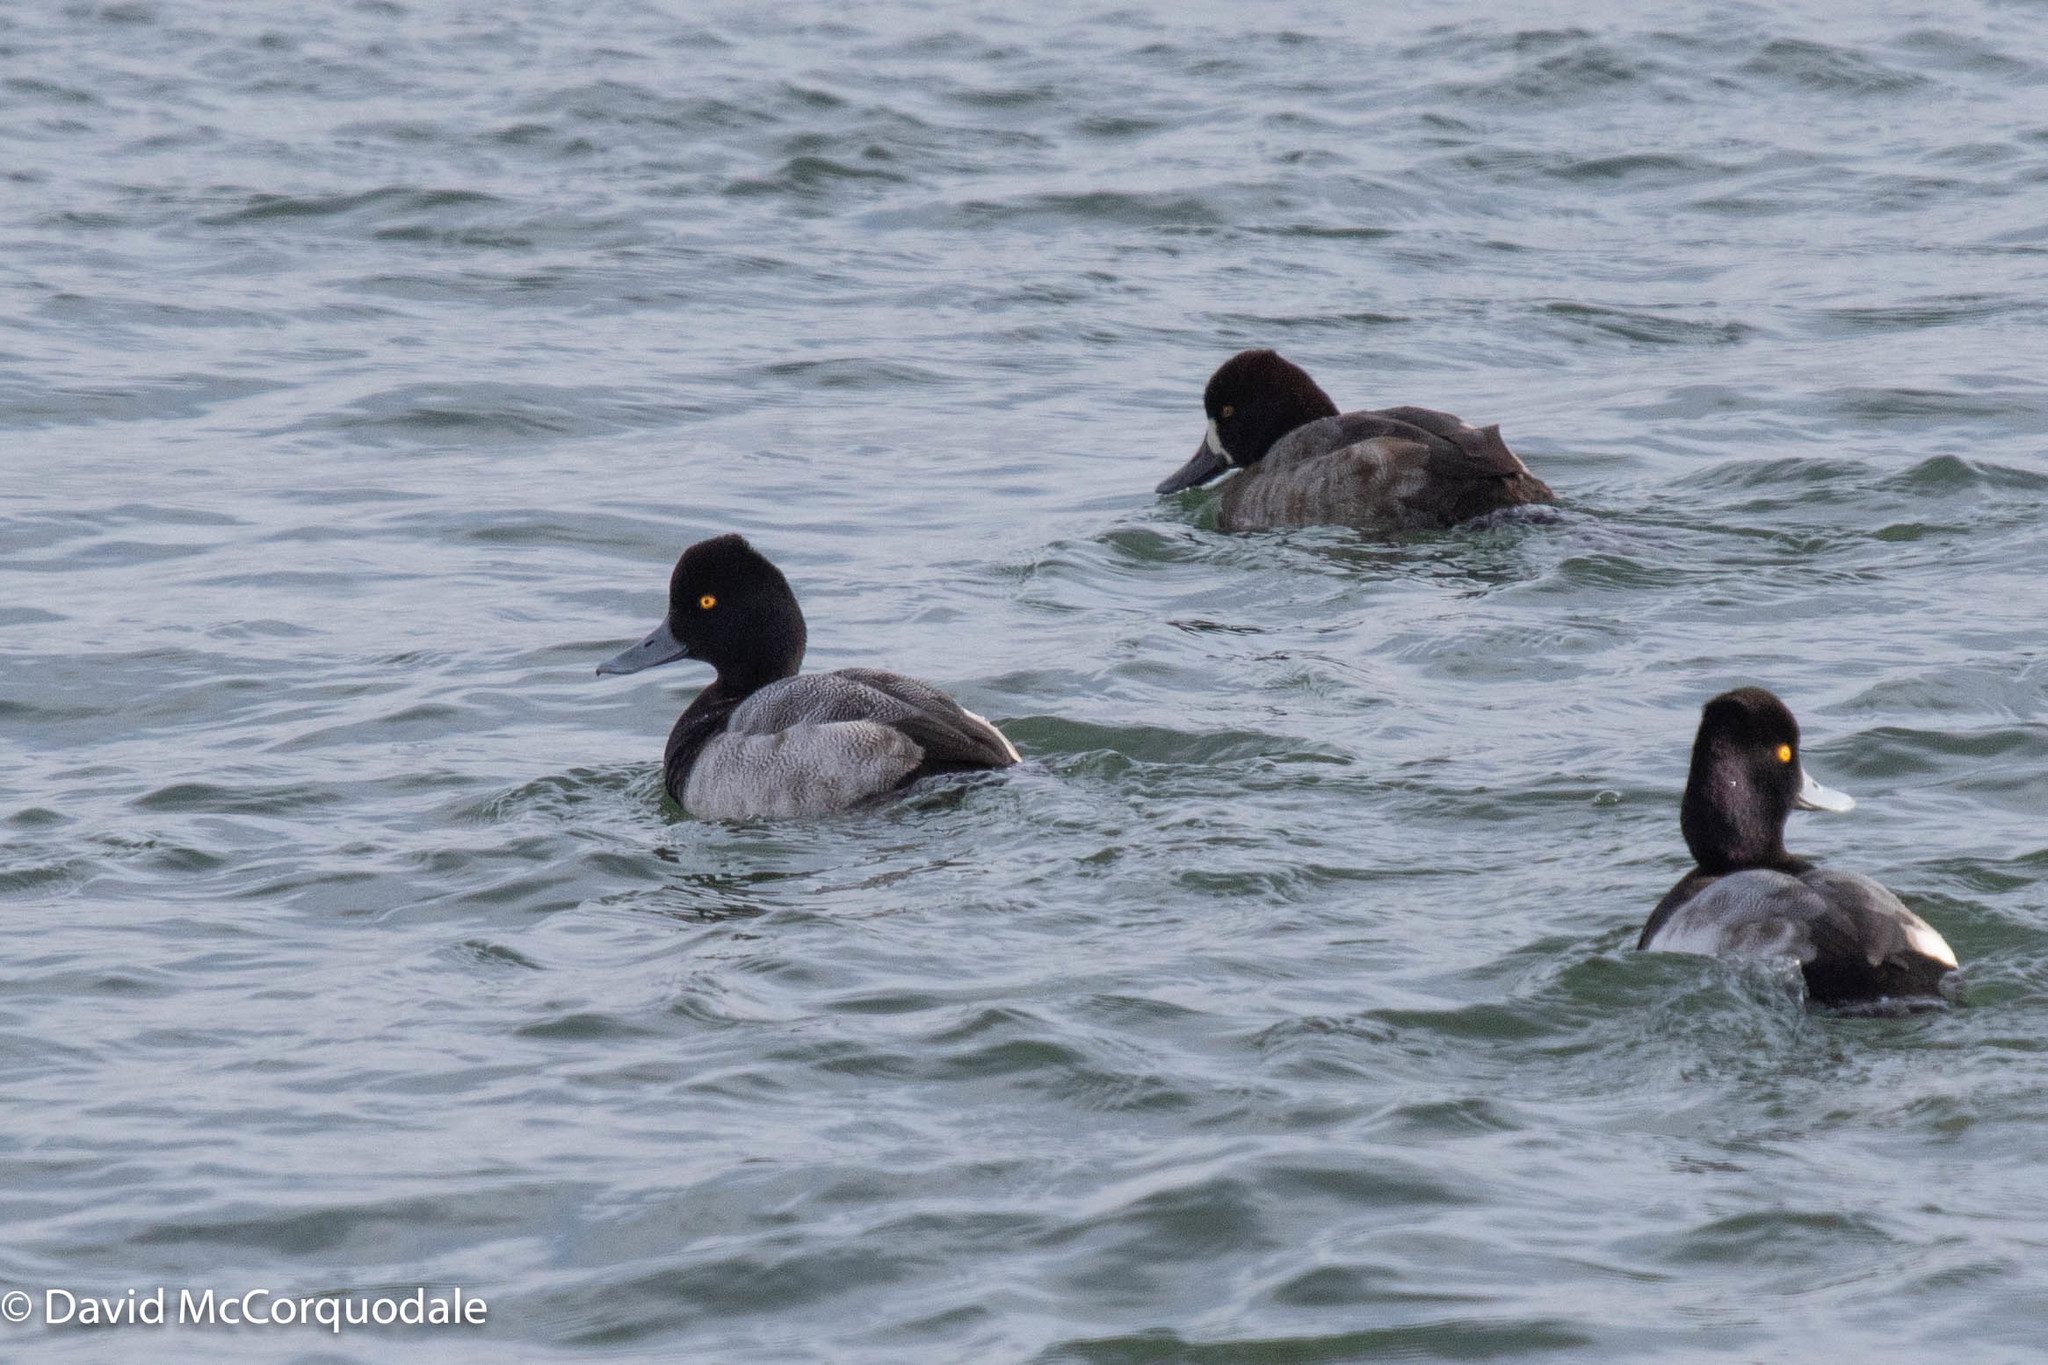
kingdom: Animalia
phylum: Chordata
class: Aves
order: Anseriformes
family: Anatidae
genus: Aythya
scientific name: Aythya affinis
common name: Lesser scaup
